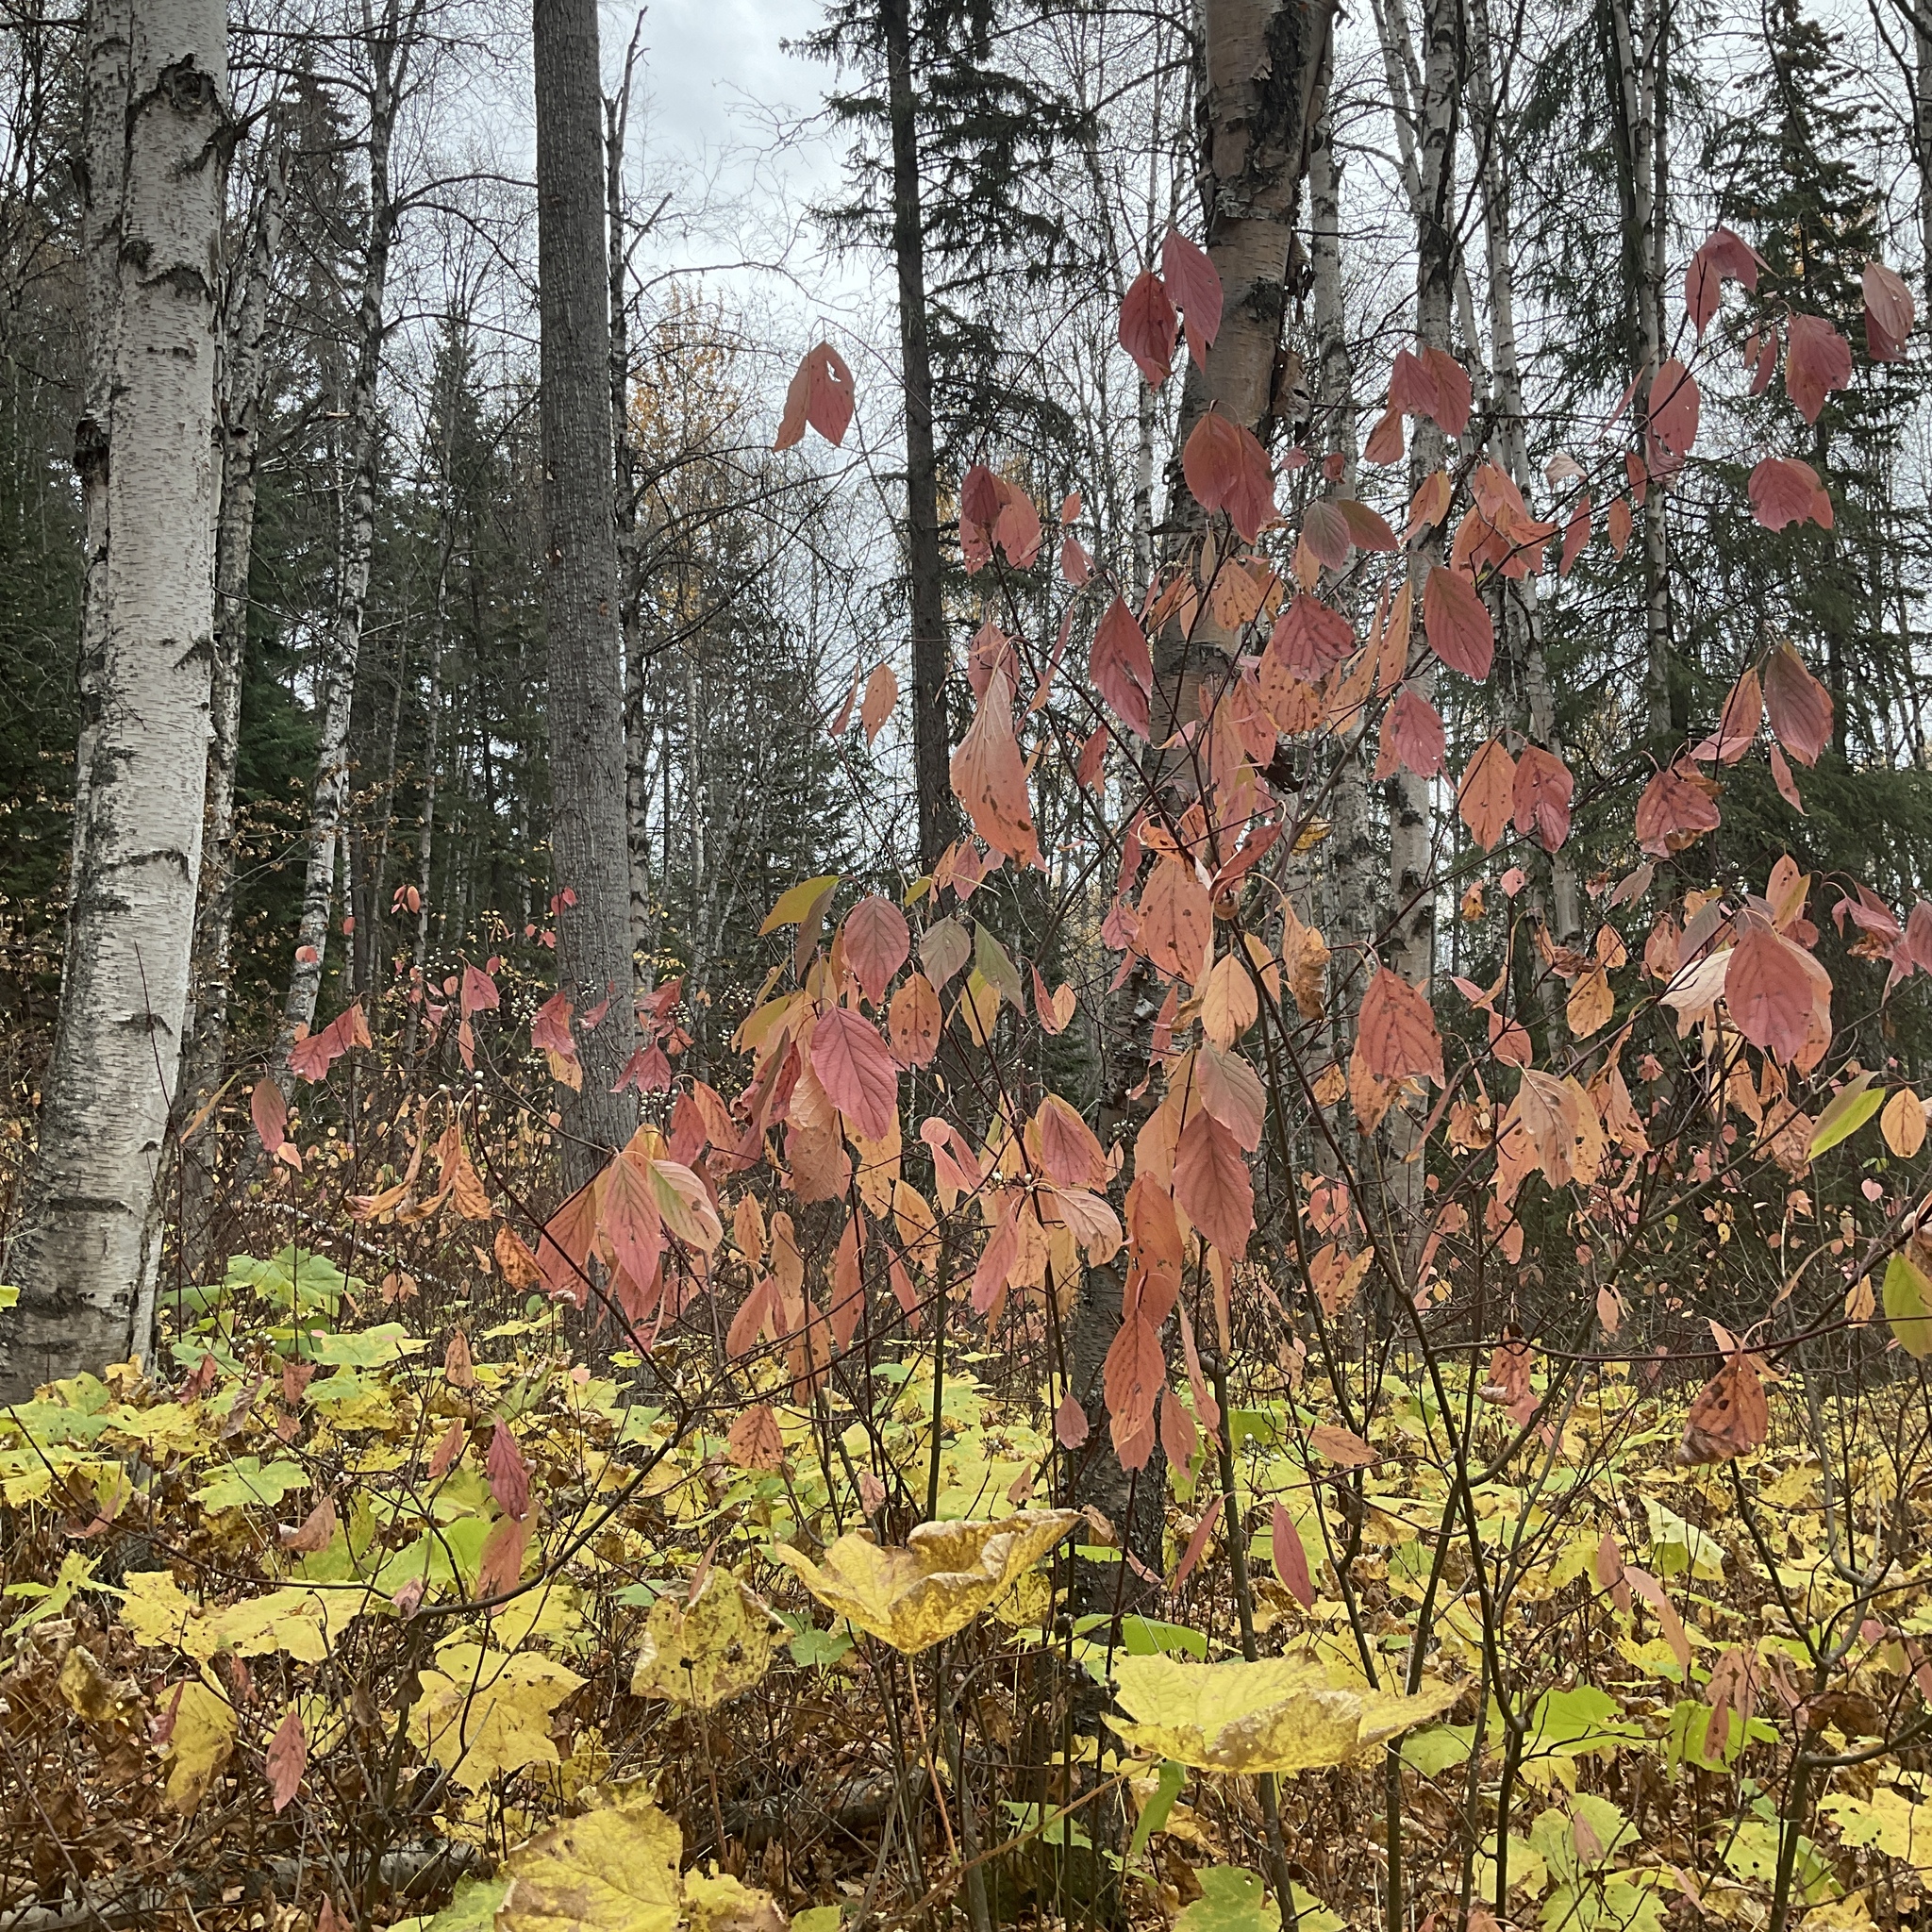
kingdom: Plantae
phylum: Tracheophyta
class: Magnoliopsida
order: Cornales
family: Cornaceae
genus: Cornus
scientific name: Cornus sericea
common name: Red-osier dogwood
